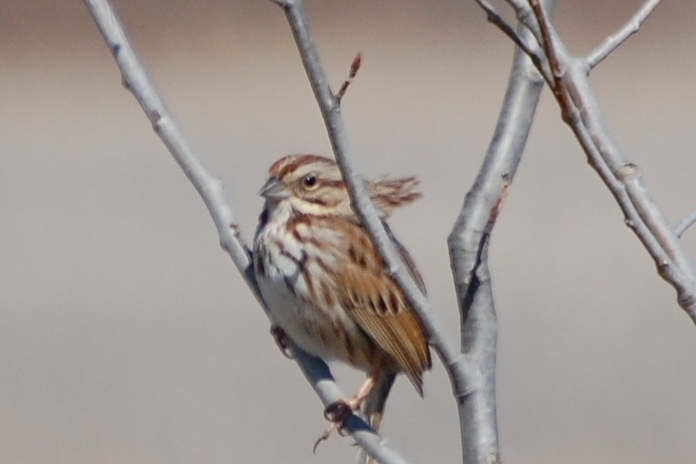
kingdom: Animalia
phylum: Chordata
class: Aves
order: Passeriformes
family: Passerellidae
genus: Melospiza
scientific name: Melospiza melodia
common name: Song sparrow
